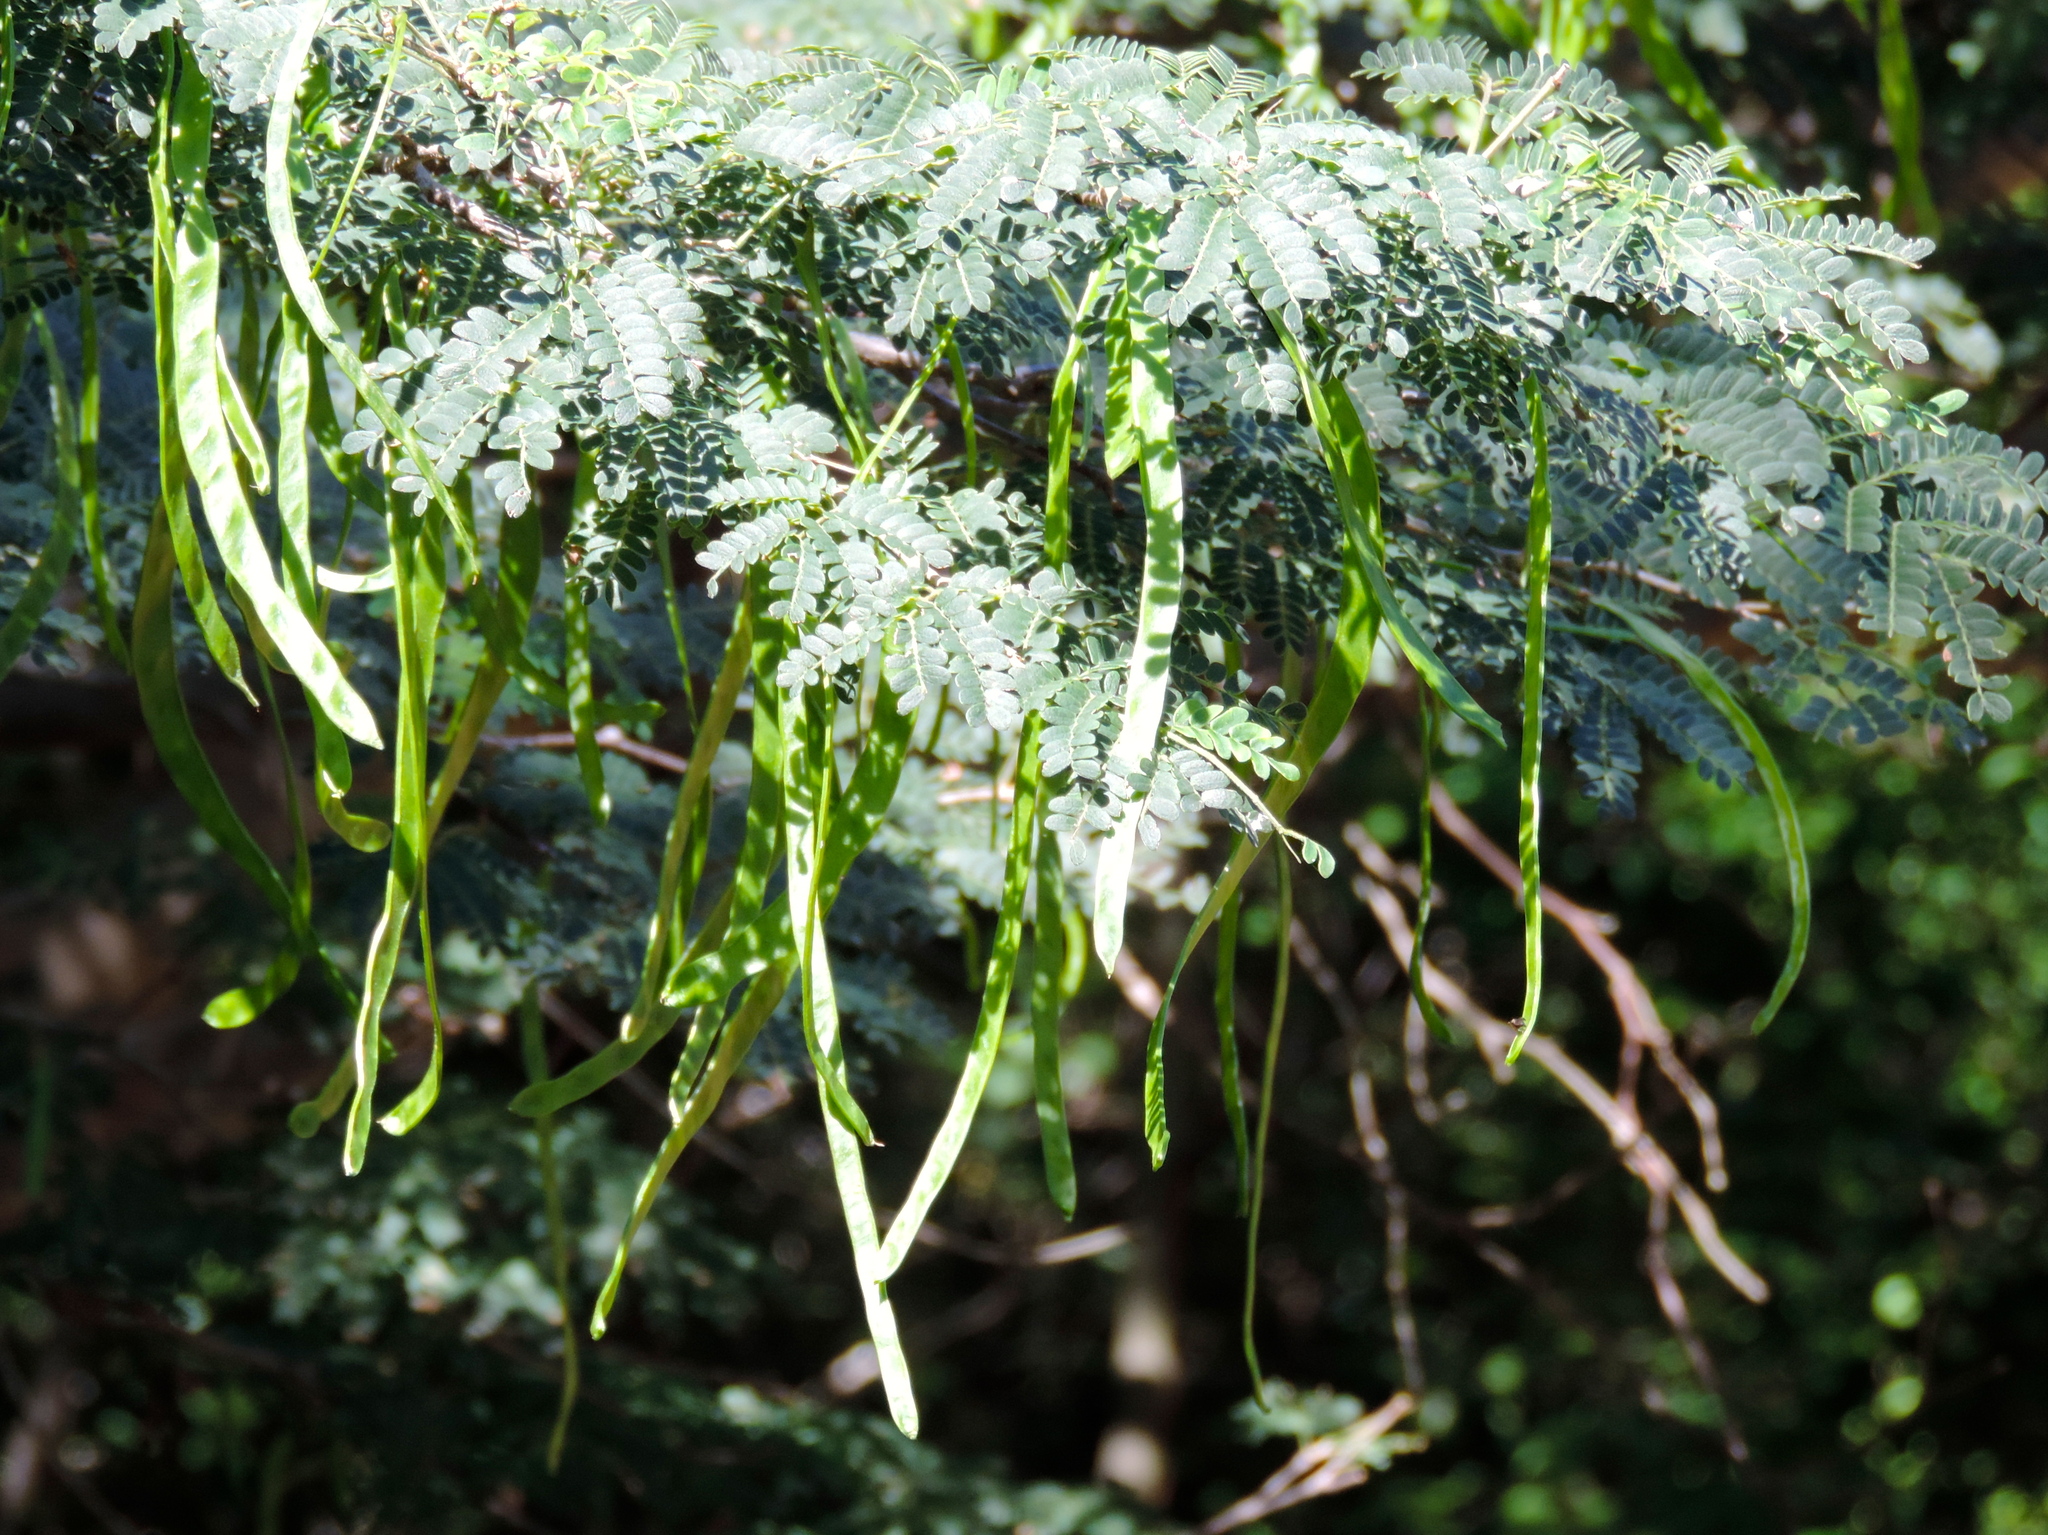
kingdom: Plantae
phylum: Tracheophyta
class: Magnoliopsida
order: Fabales
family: Fabaceae
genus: Chloroleucon
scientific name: Chloroleucon mangense
